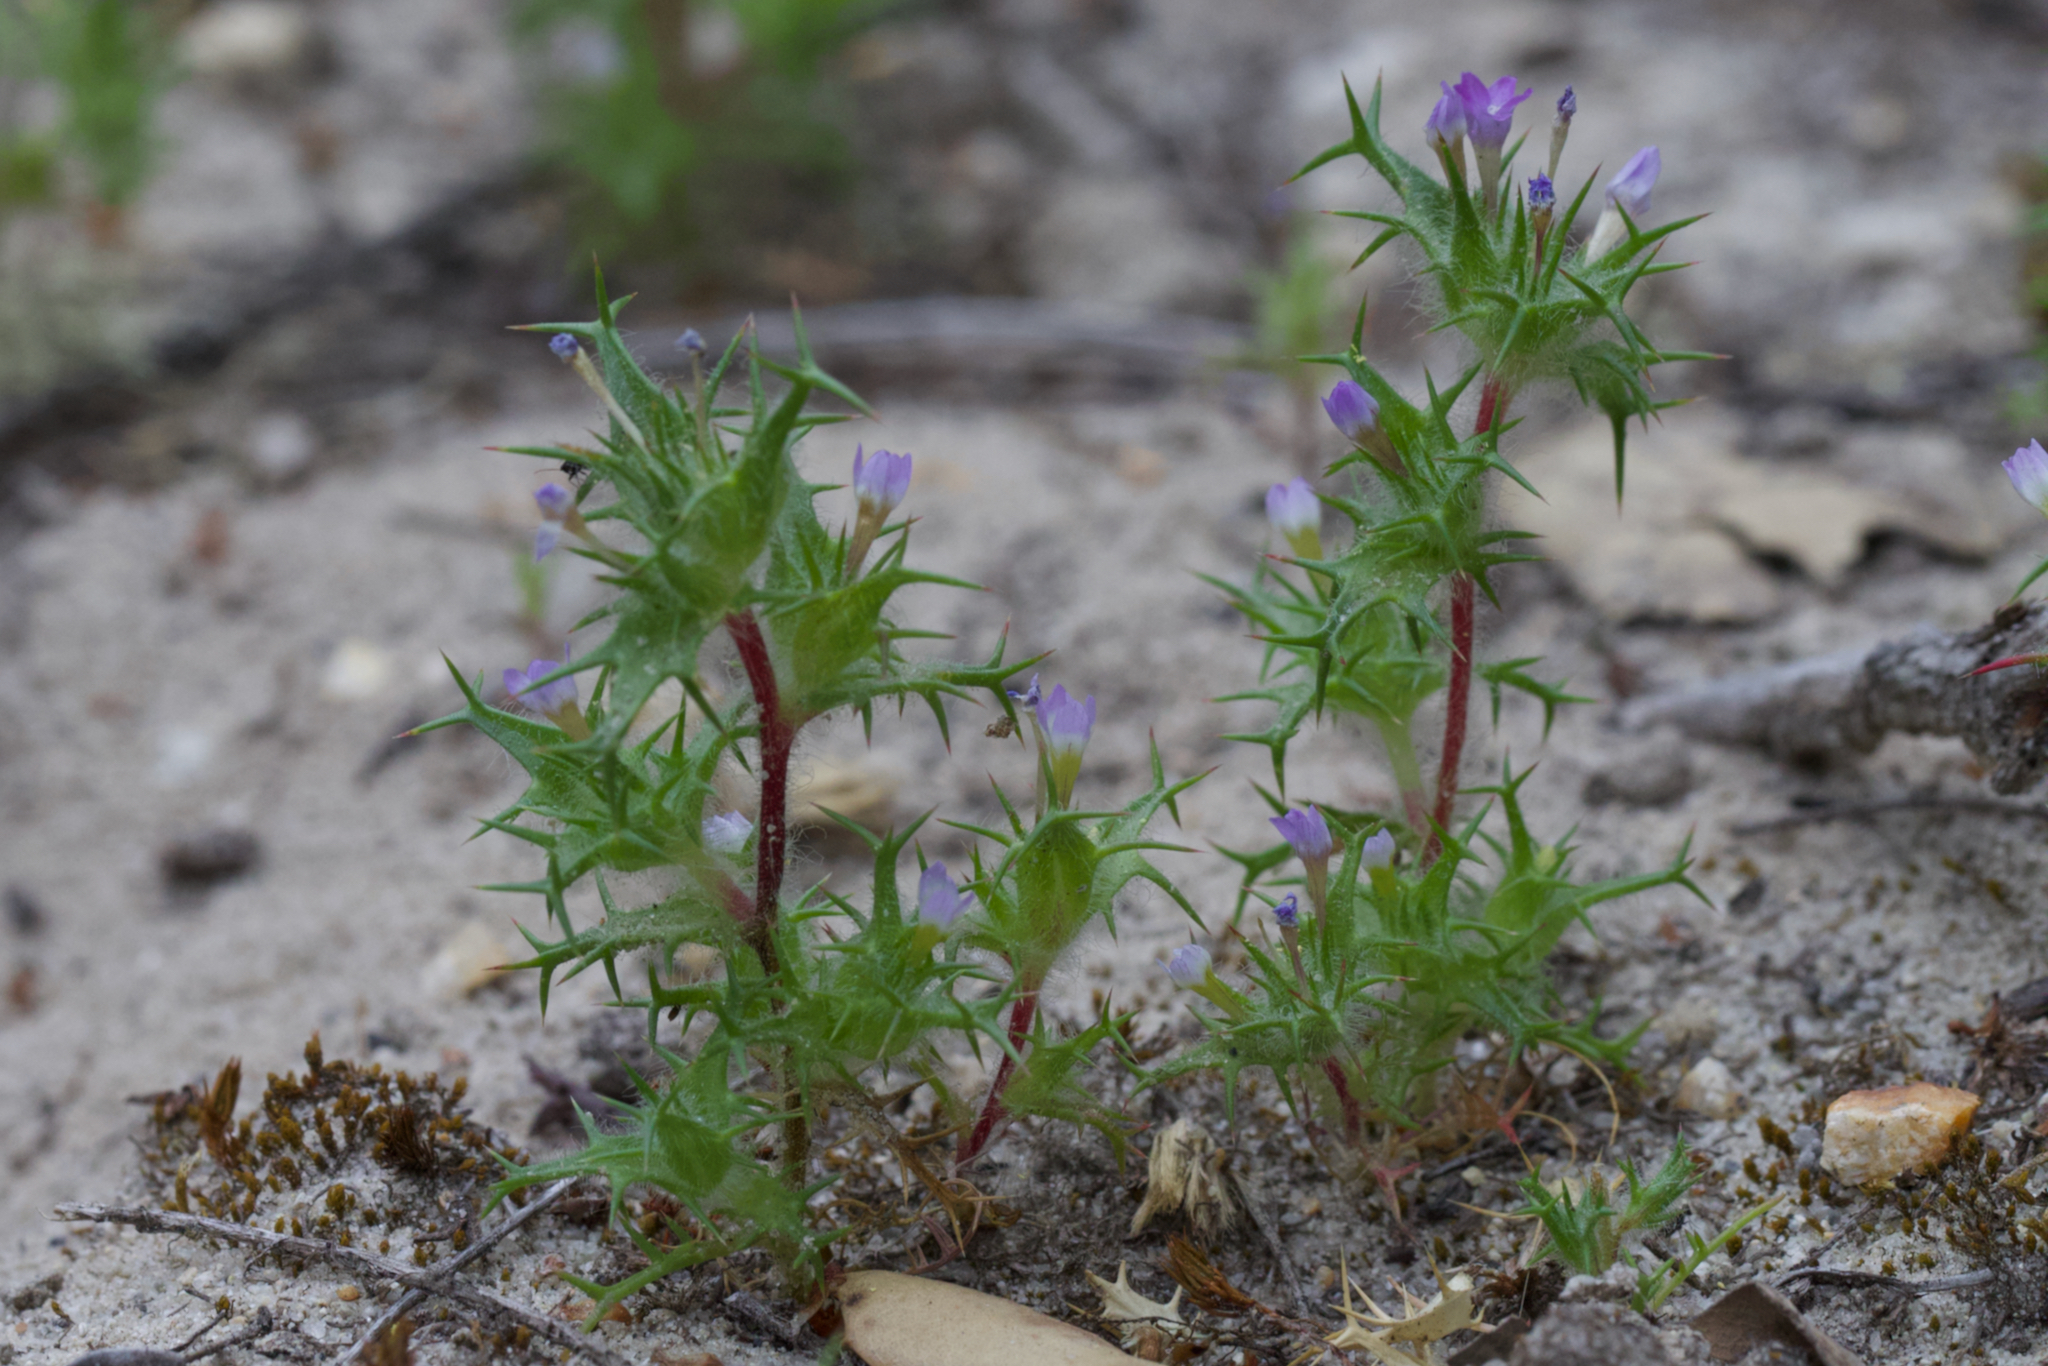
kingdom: Plantae
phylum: Tracheophyta
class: Magnoliopsida
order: Ericales
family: Polemoniaceae
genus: Navarretia
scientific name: Navarretia hamata
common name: Hooked navarretia
